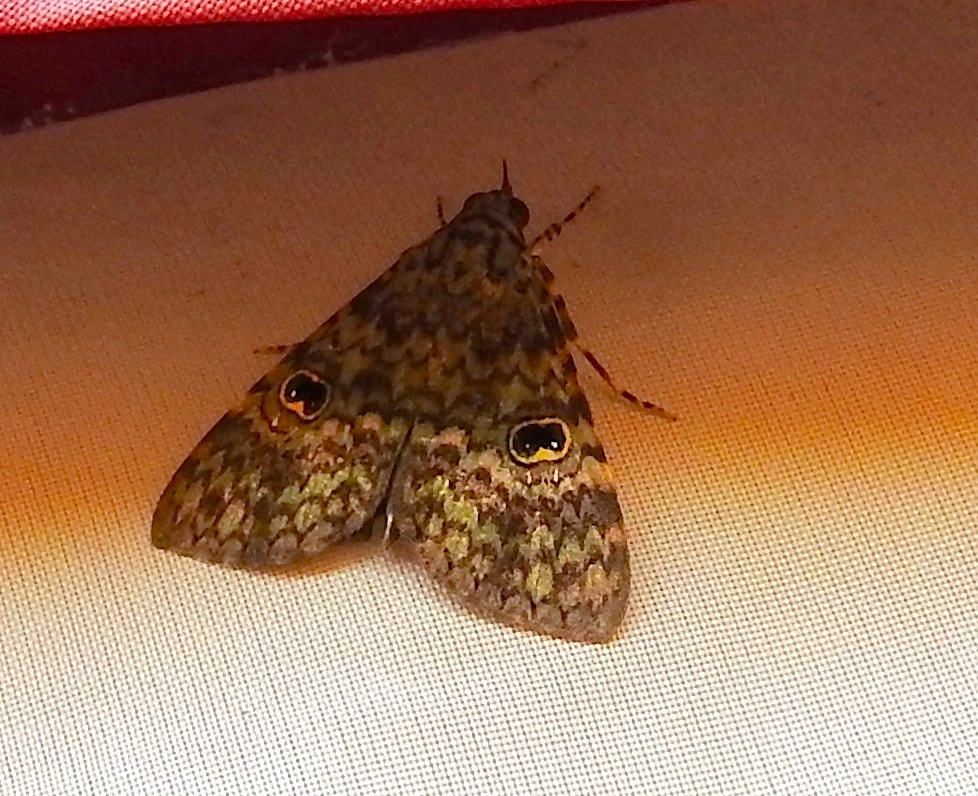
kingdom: Animalia
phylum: Arthropoda
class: Insecta
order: Lepidoptera
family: Erebidae
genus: Glenopteris
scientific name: Glenopteris oculifera
